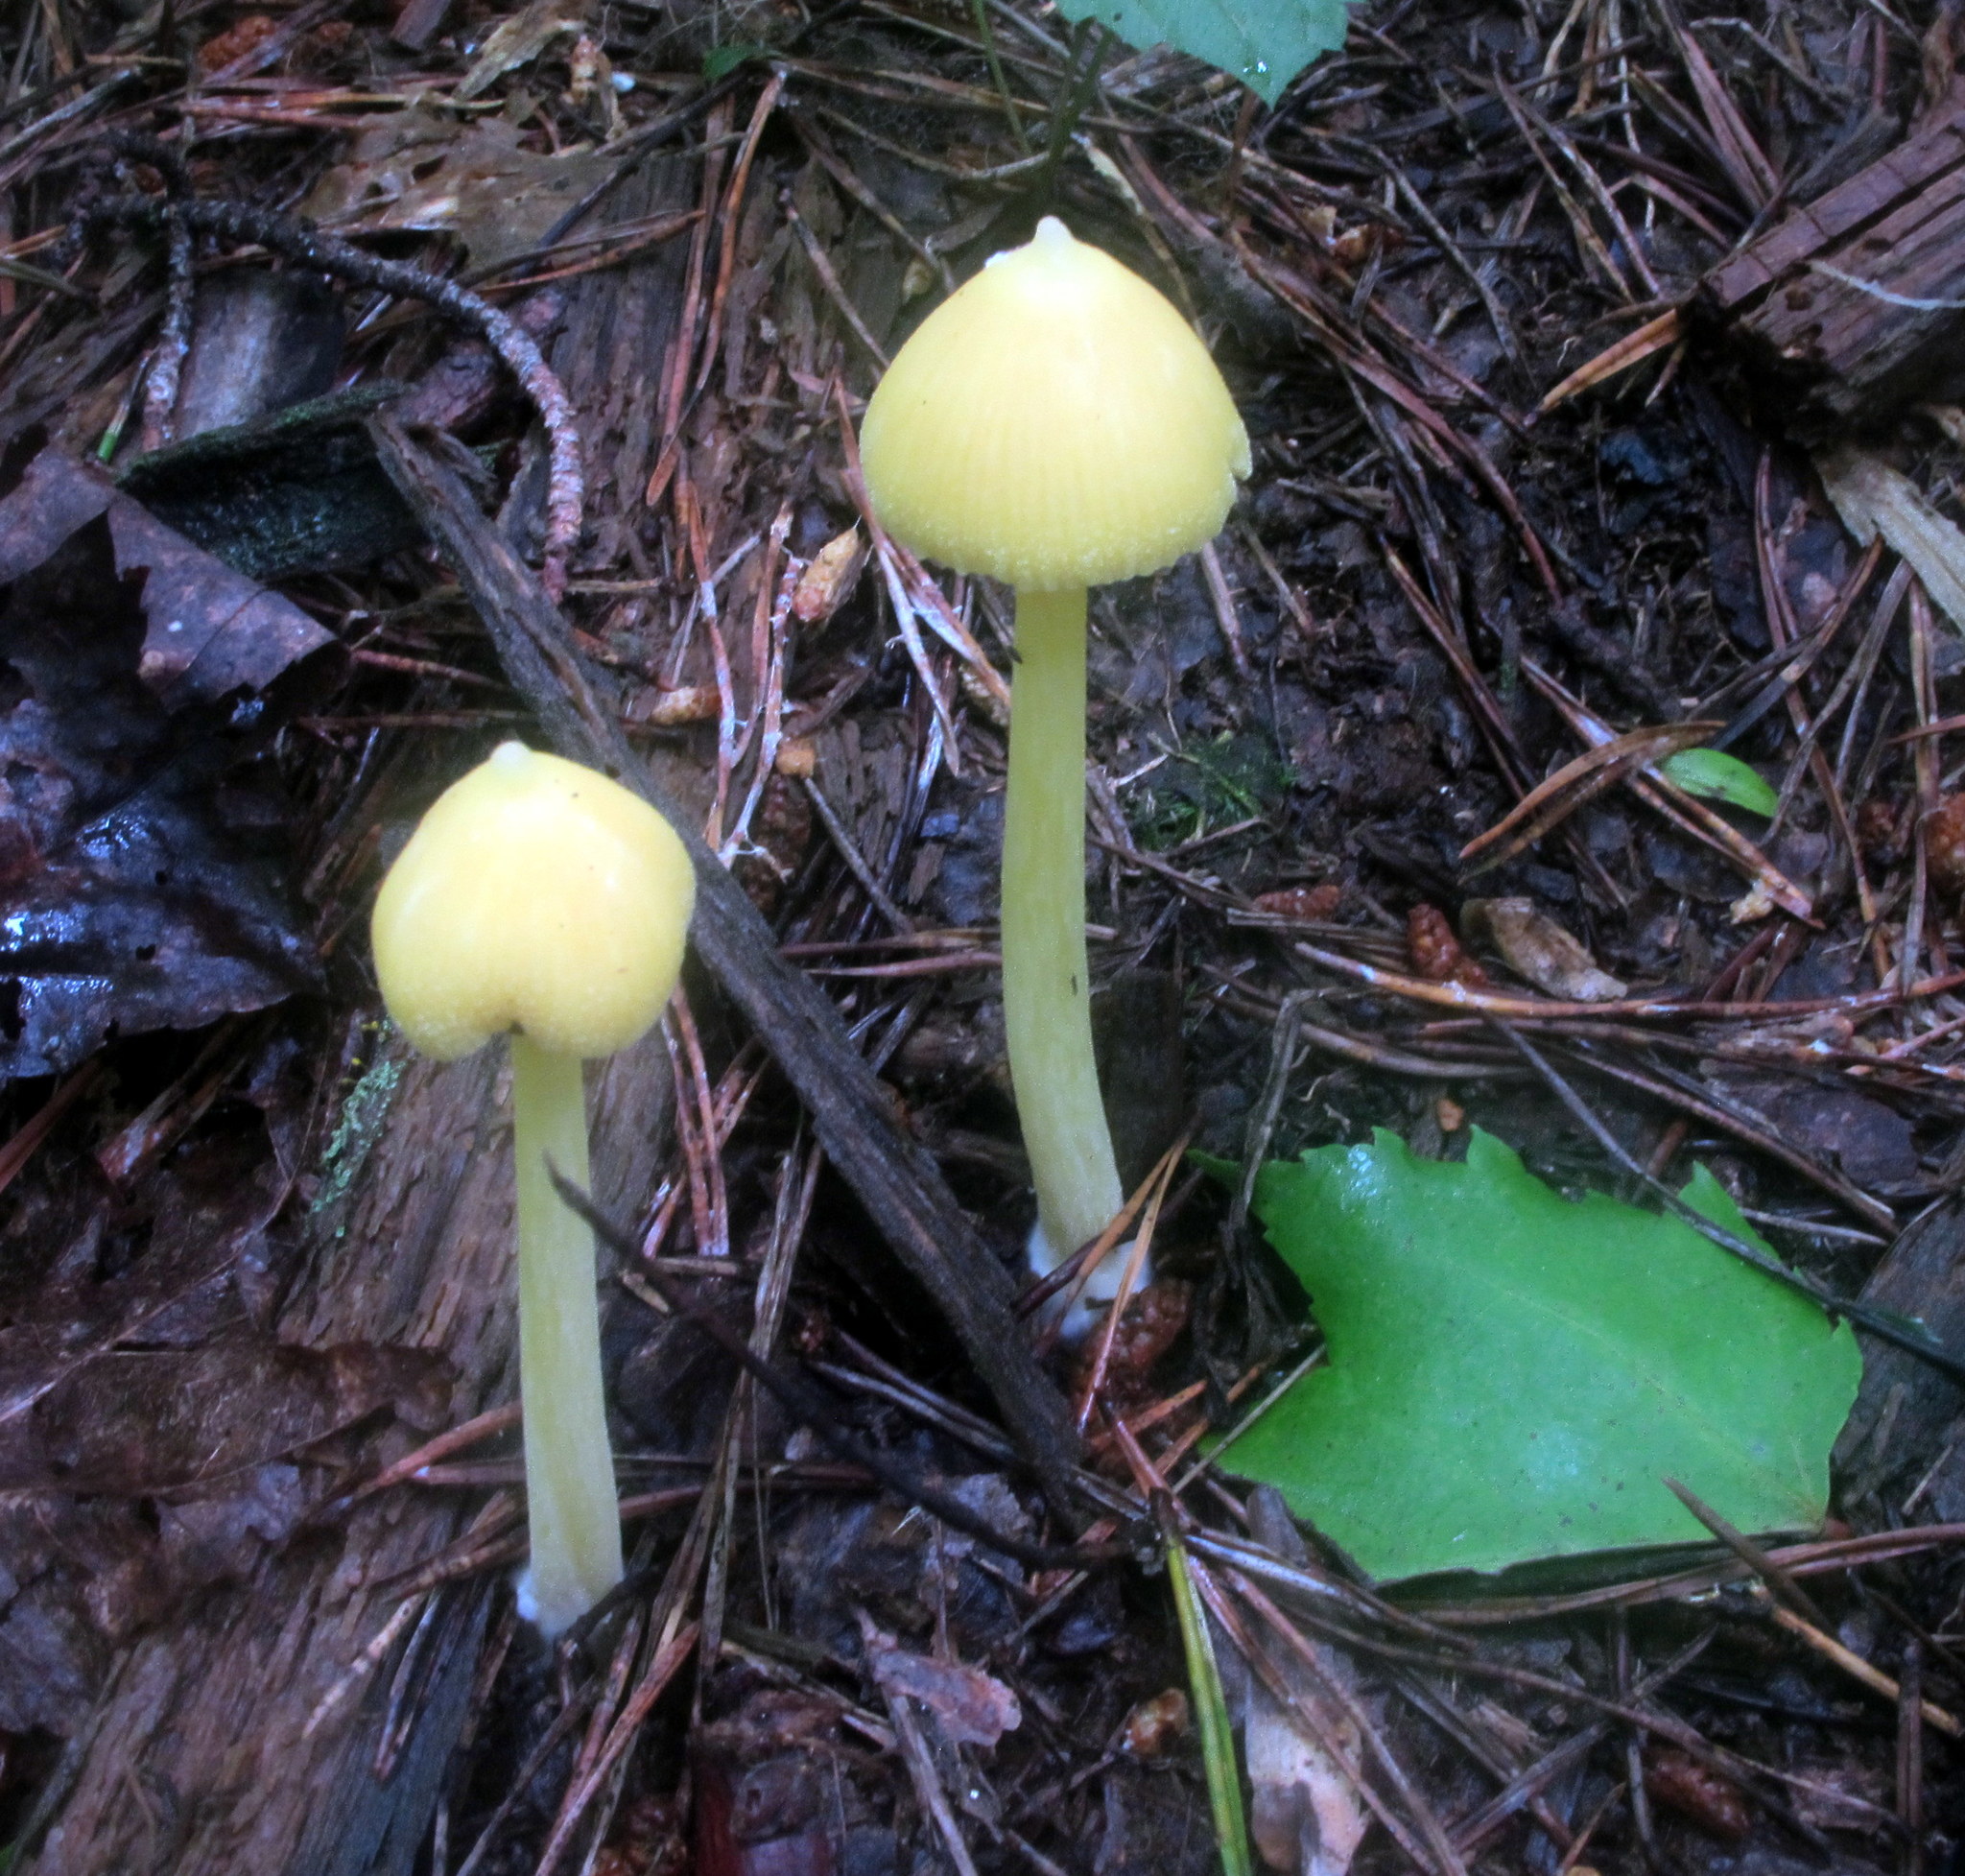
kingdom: Fungi
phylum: Basidiomycota
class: Agaricomycetes
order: Agaricales
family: Entolomataceae
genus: Entoloma
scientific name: Entoloma murrayi
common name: Yellow unicorn entoloma
